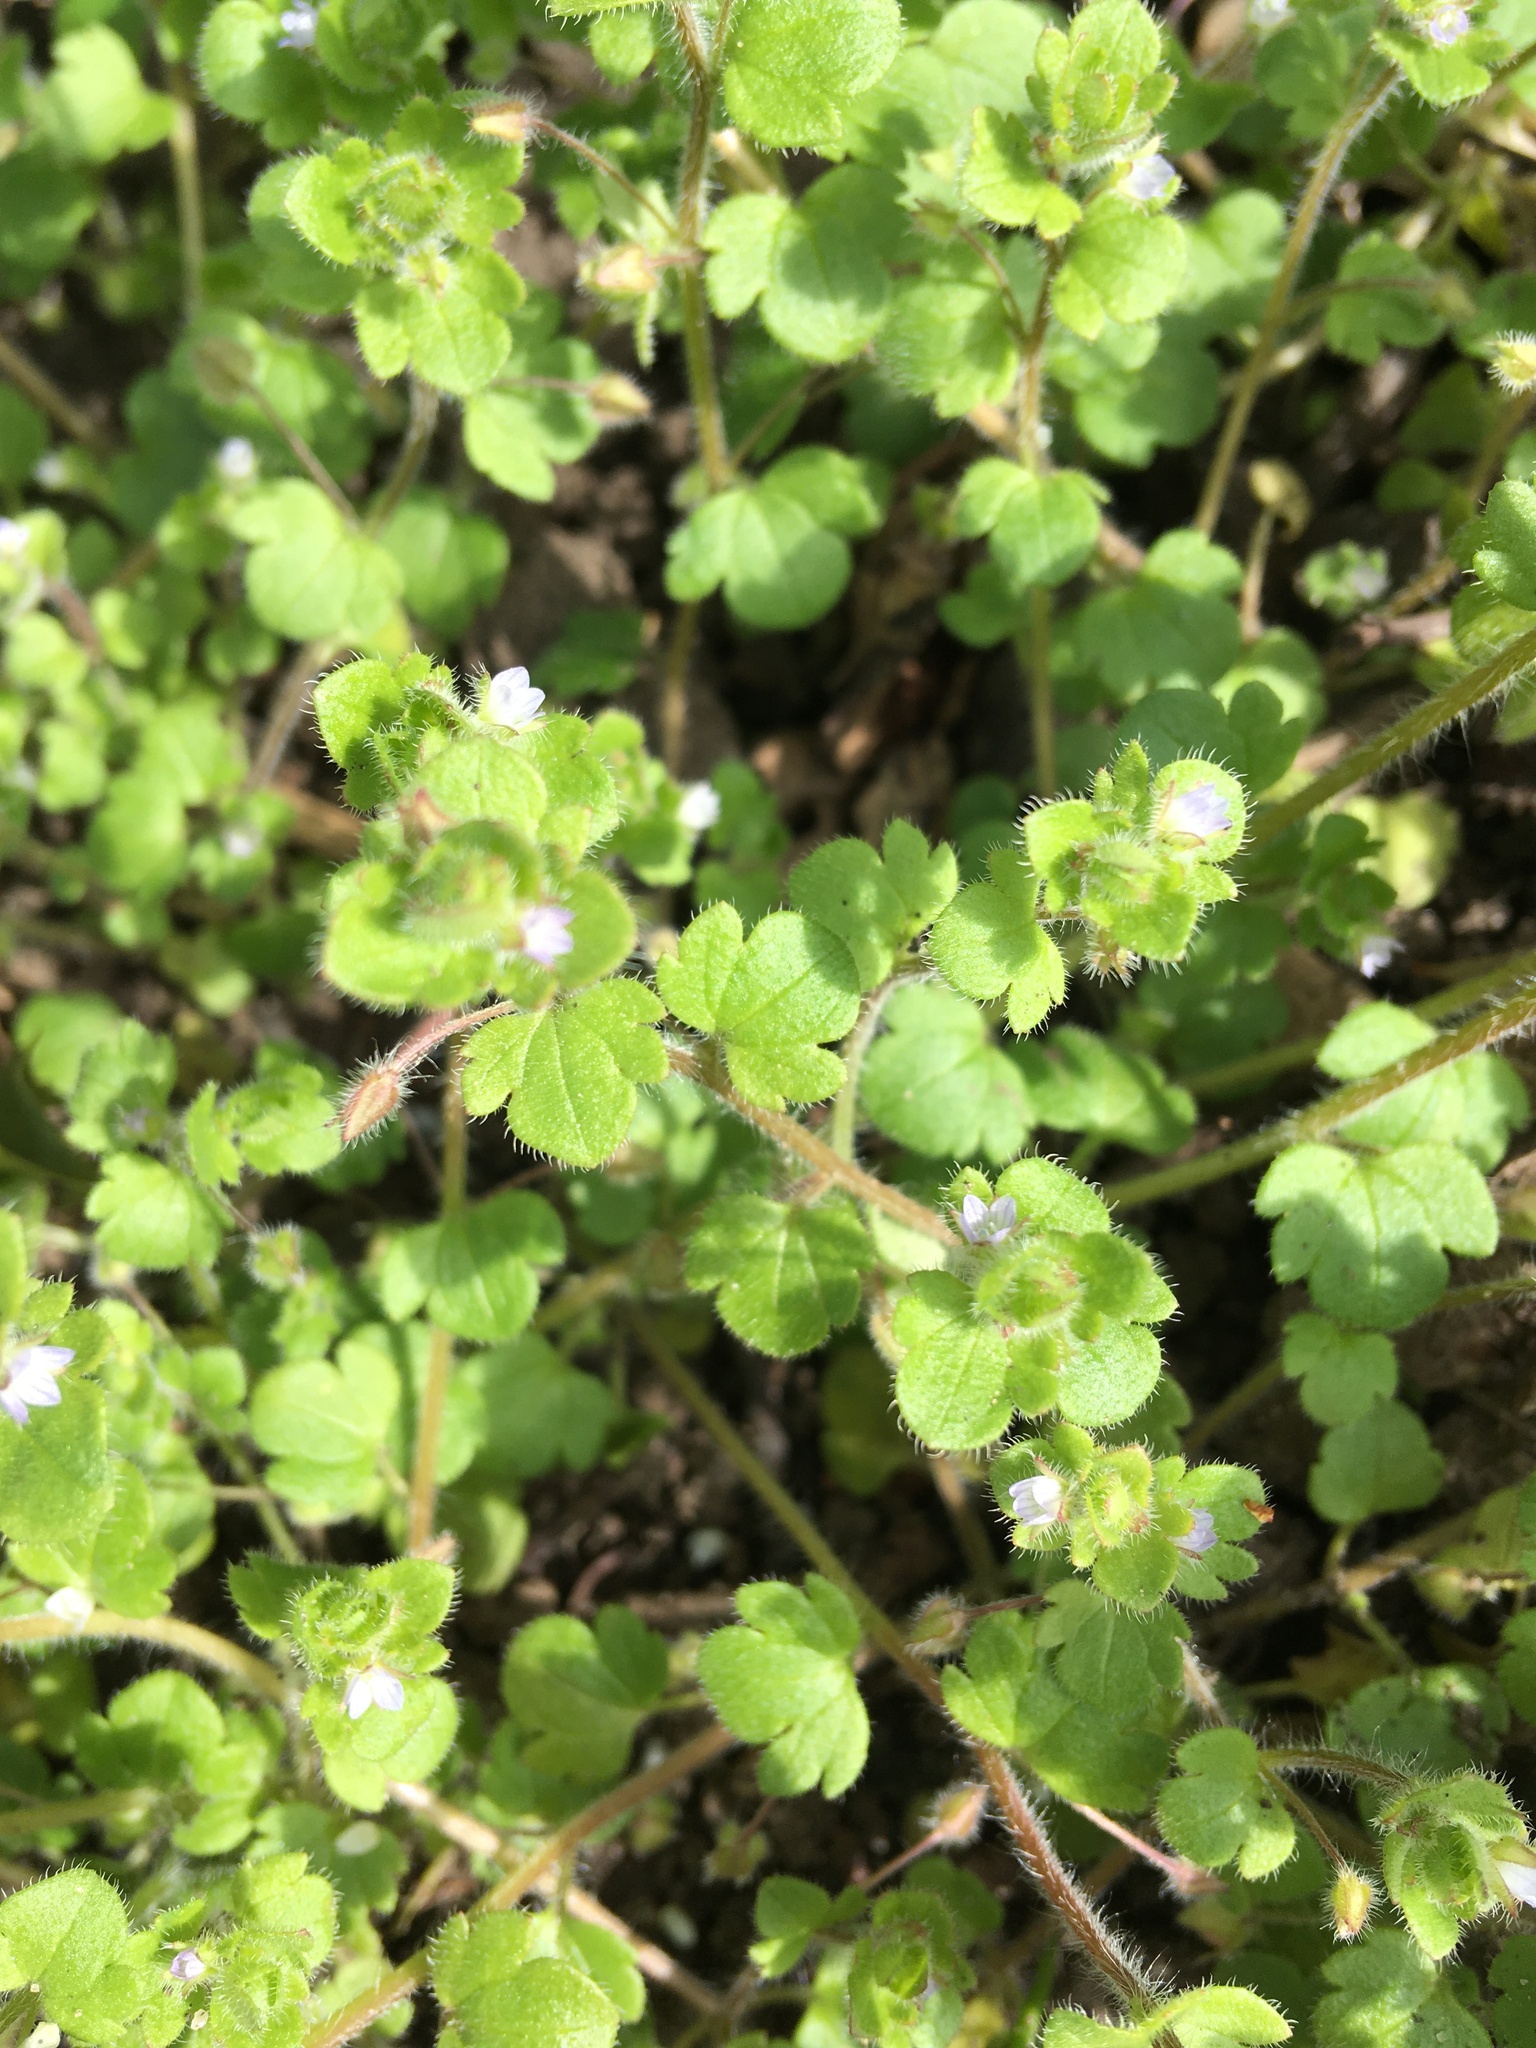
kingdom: Plantae
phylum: Tracheophyta
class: Magnoliopsida
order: Lamiales
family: Plantaginaceae
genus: Veronica
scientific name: Veronica sublobata
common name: False ivy-leaved speedwell
